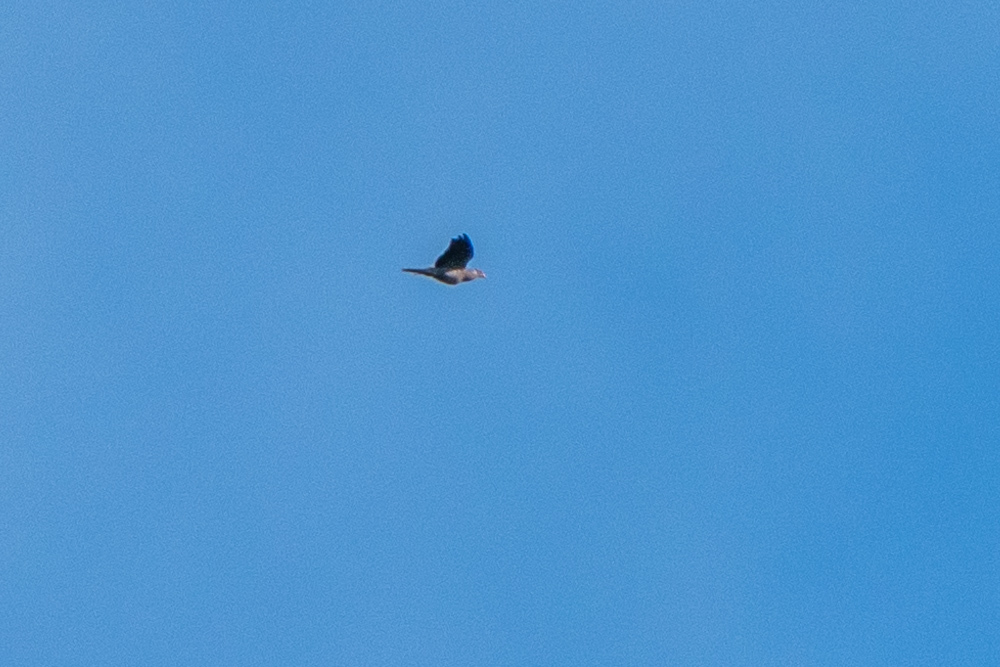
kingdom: Animalia
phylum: Chordata
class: Aves
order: Columbiformes
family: Columbidae
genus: Patagioenas
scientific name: Patagioenas fasciata
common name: Band-tailed pigeon
